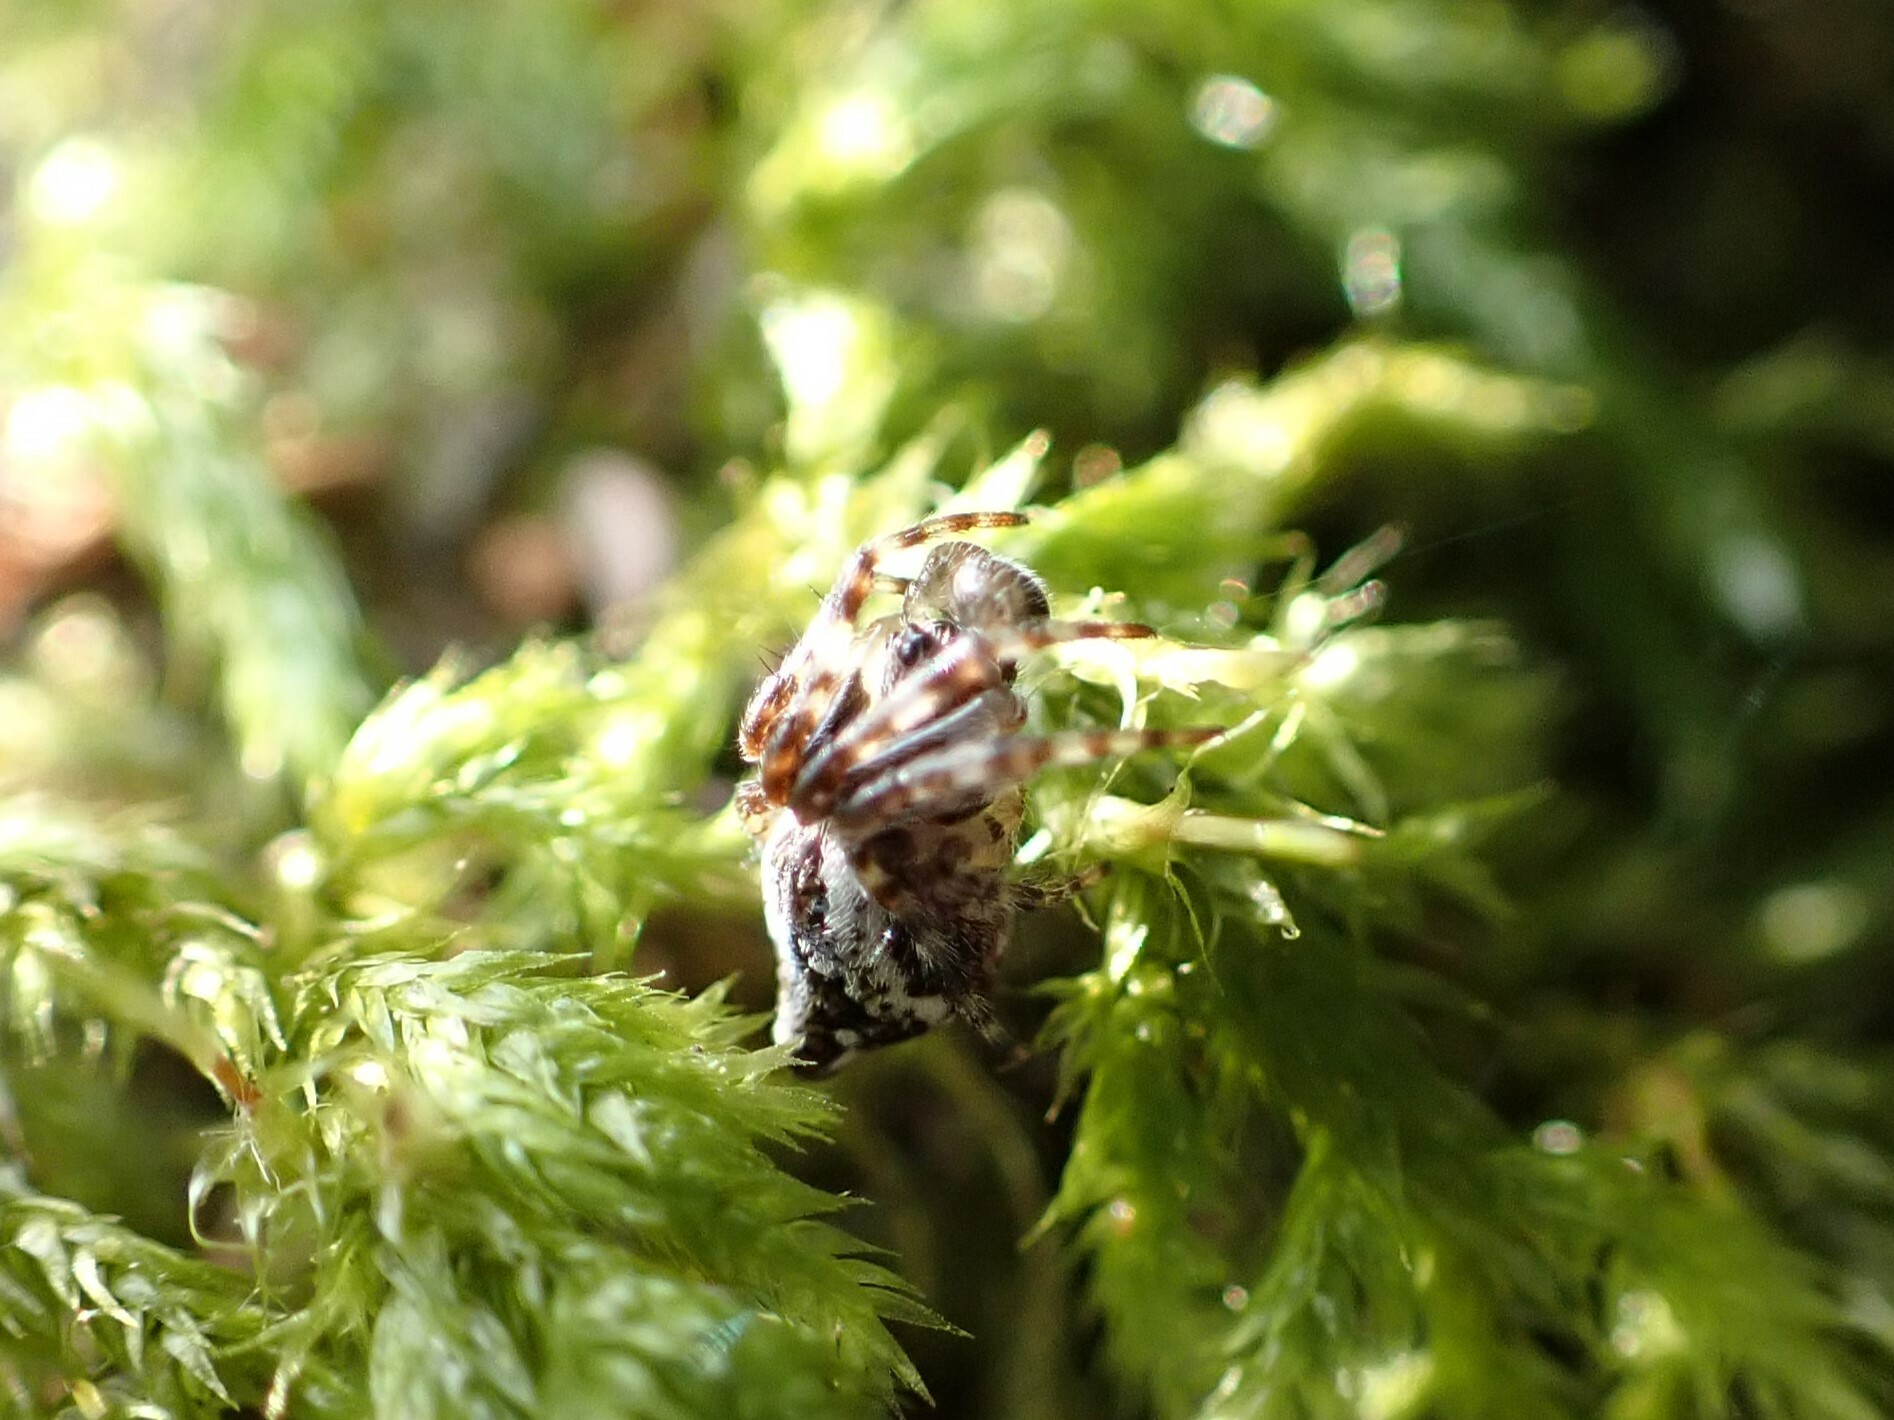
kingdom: Animalia
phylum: Arthropoda
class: Arachnida
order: Araneae
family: Araneidae
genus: Cyclosa
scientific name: Cyclosa conica
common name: Conical trashline orbweaver
